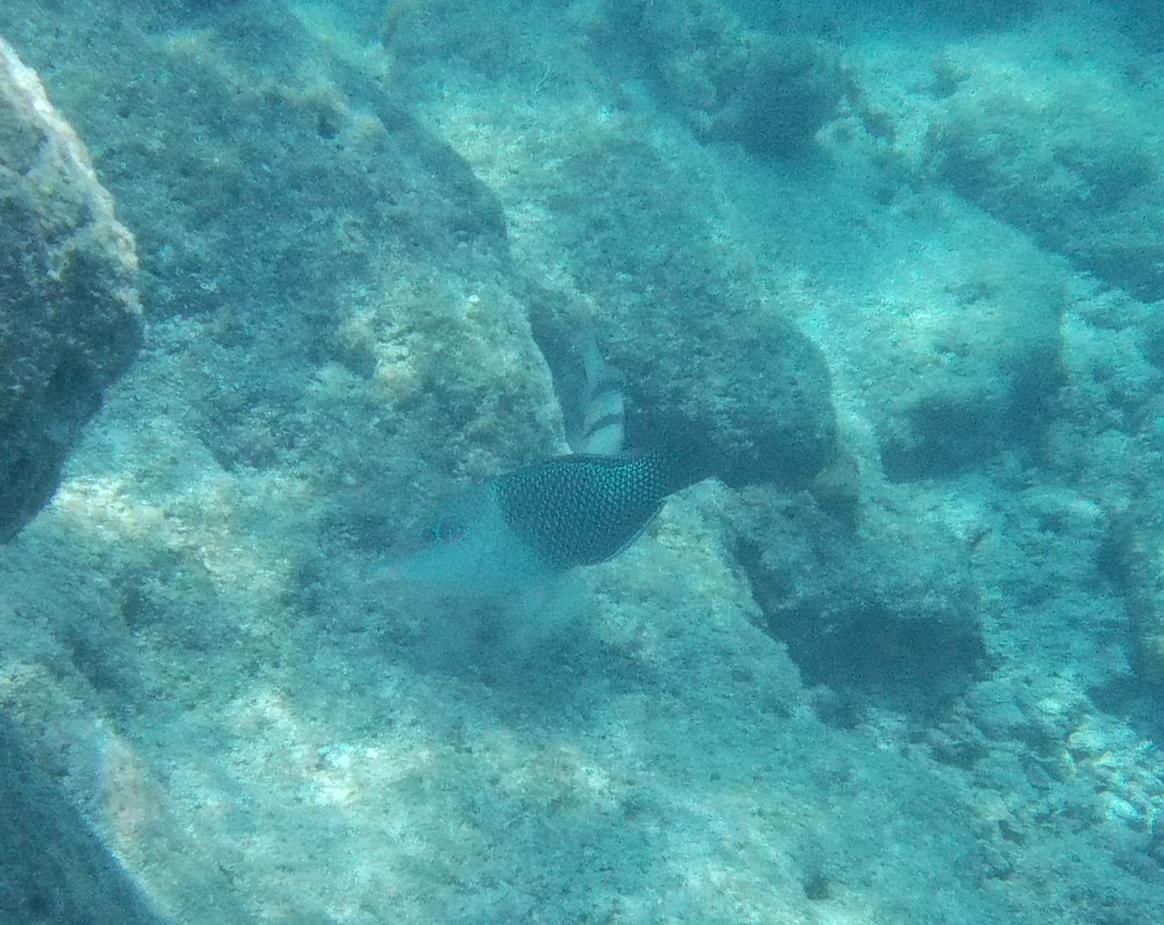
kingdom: Animalia
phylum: Chordata
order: Perciformes
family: Labridae
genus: Hemigymnus
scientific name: Hemigymnus melapterus
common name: Blackeye thicklip
